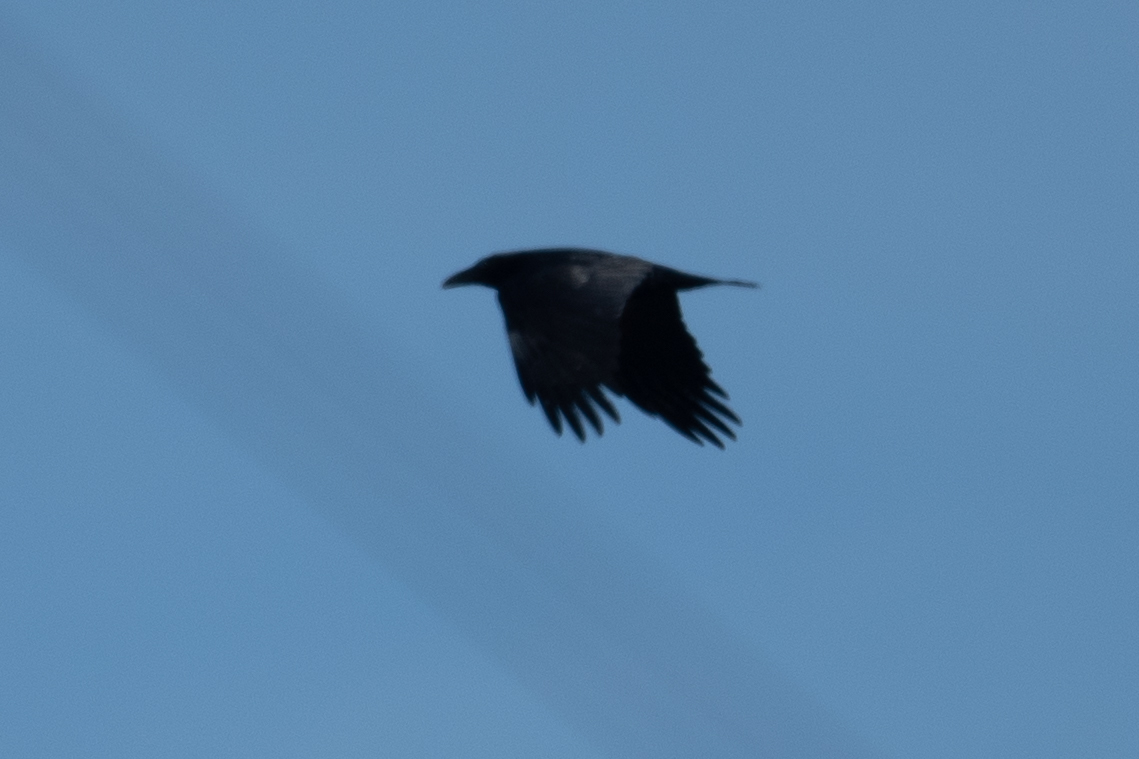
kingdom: Animalia
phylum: Chordata
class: Aves
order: Passeriformes
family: Corvidae
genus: Corvus
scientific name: Corvus corax
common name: Common raven
